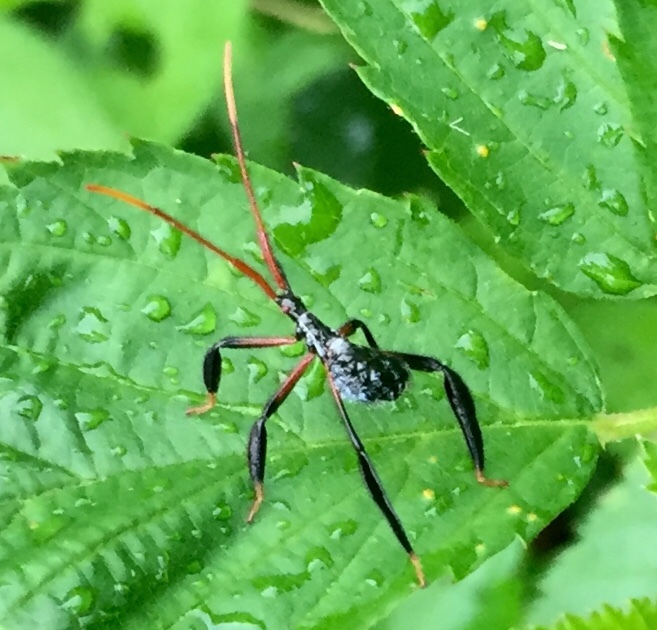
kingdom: Animalia
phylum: Arthropoda
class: Insecta
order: Hemiptera
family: Coreidae
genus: Acanthocephala
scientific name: Acanthocephala terminalis
